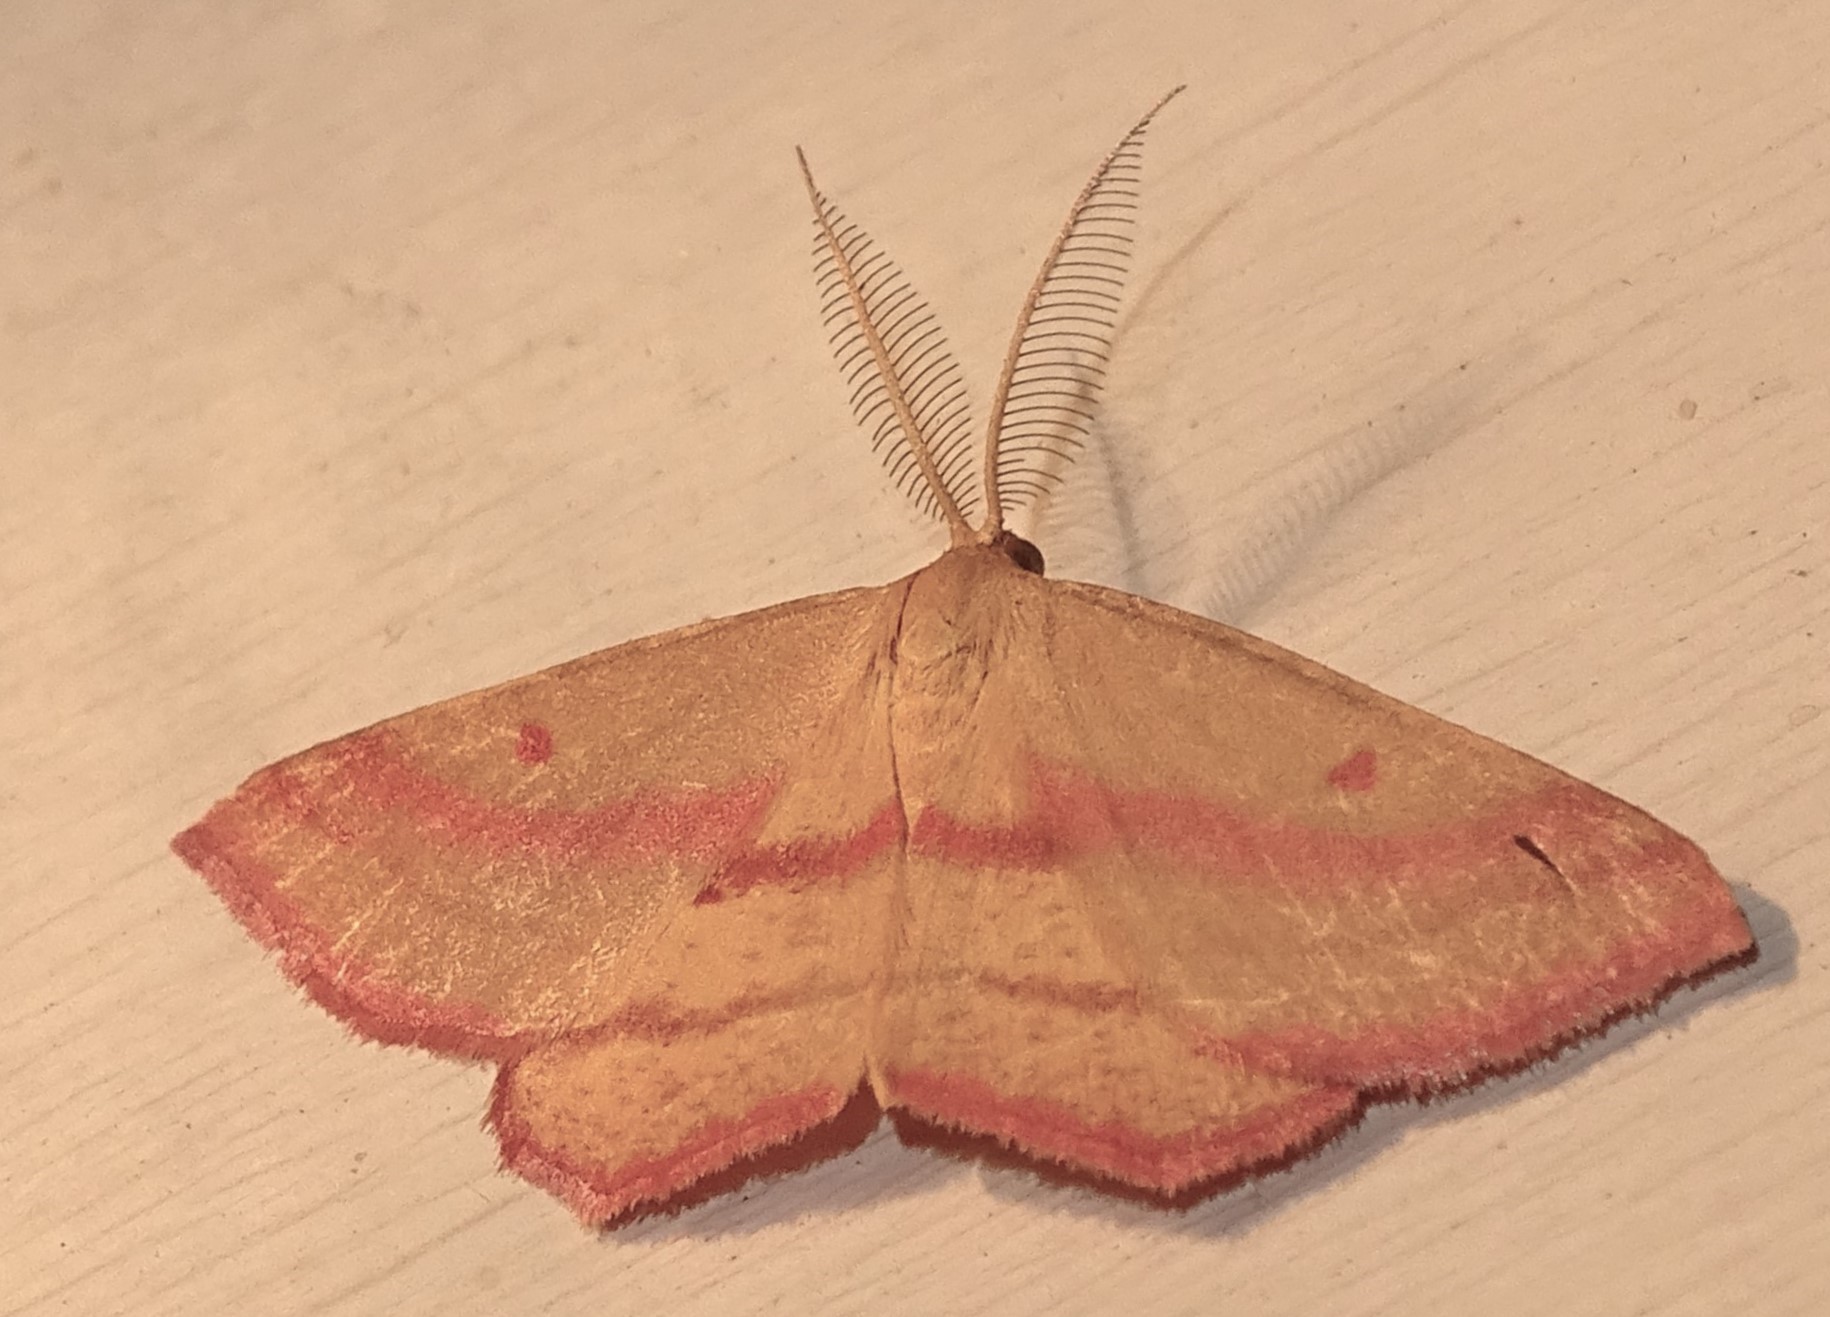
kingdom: Animalia
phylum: Arthropoda
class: Insecta
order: Lepidoptera
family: Geometridae
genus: Haematopis
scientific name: Haematopis grataria
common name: Chickweed geometer
